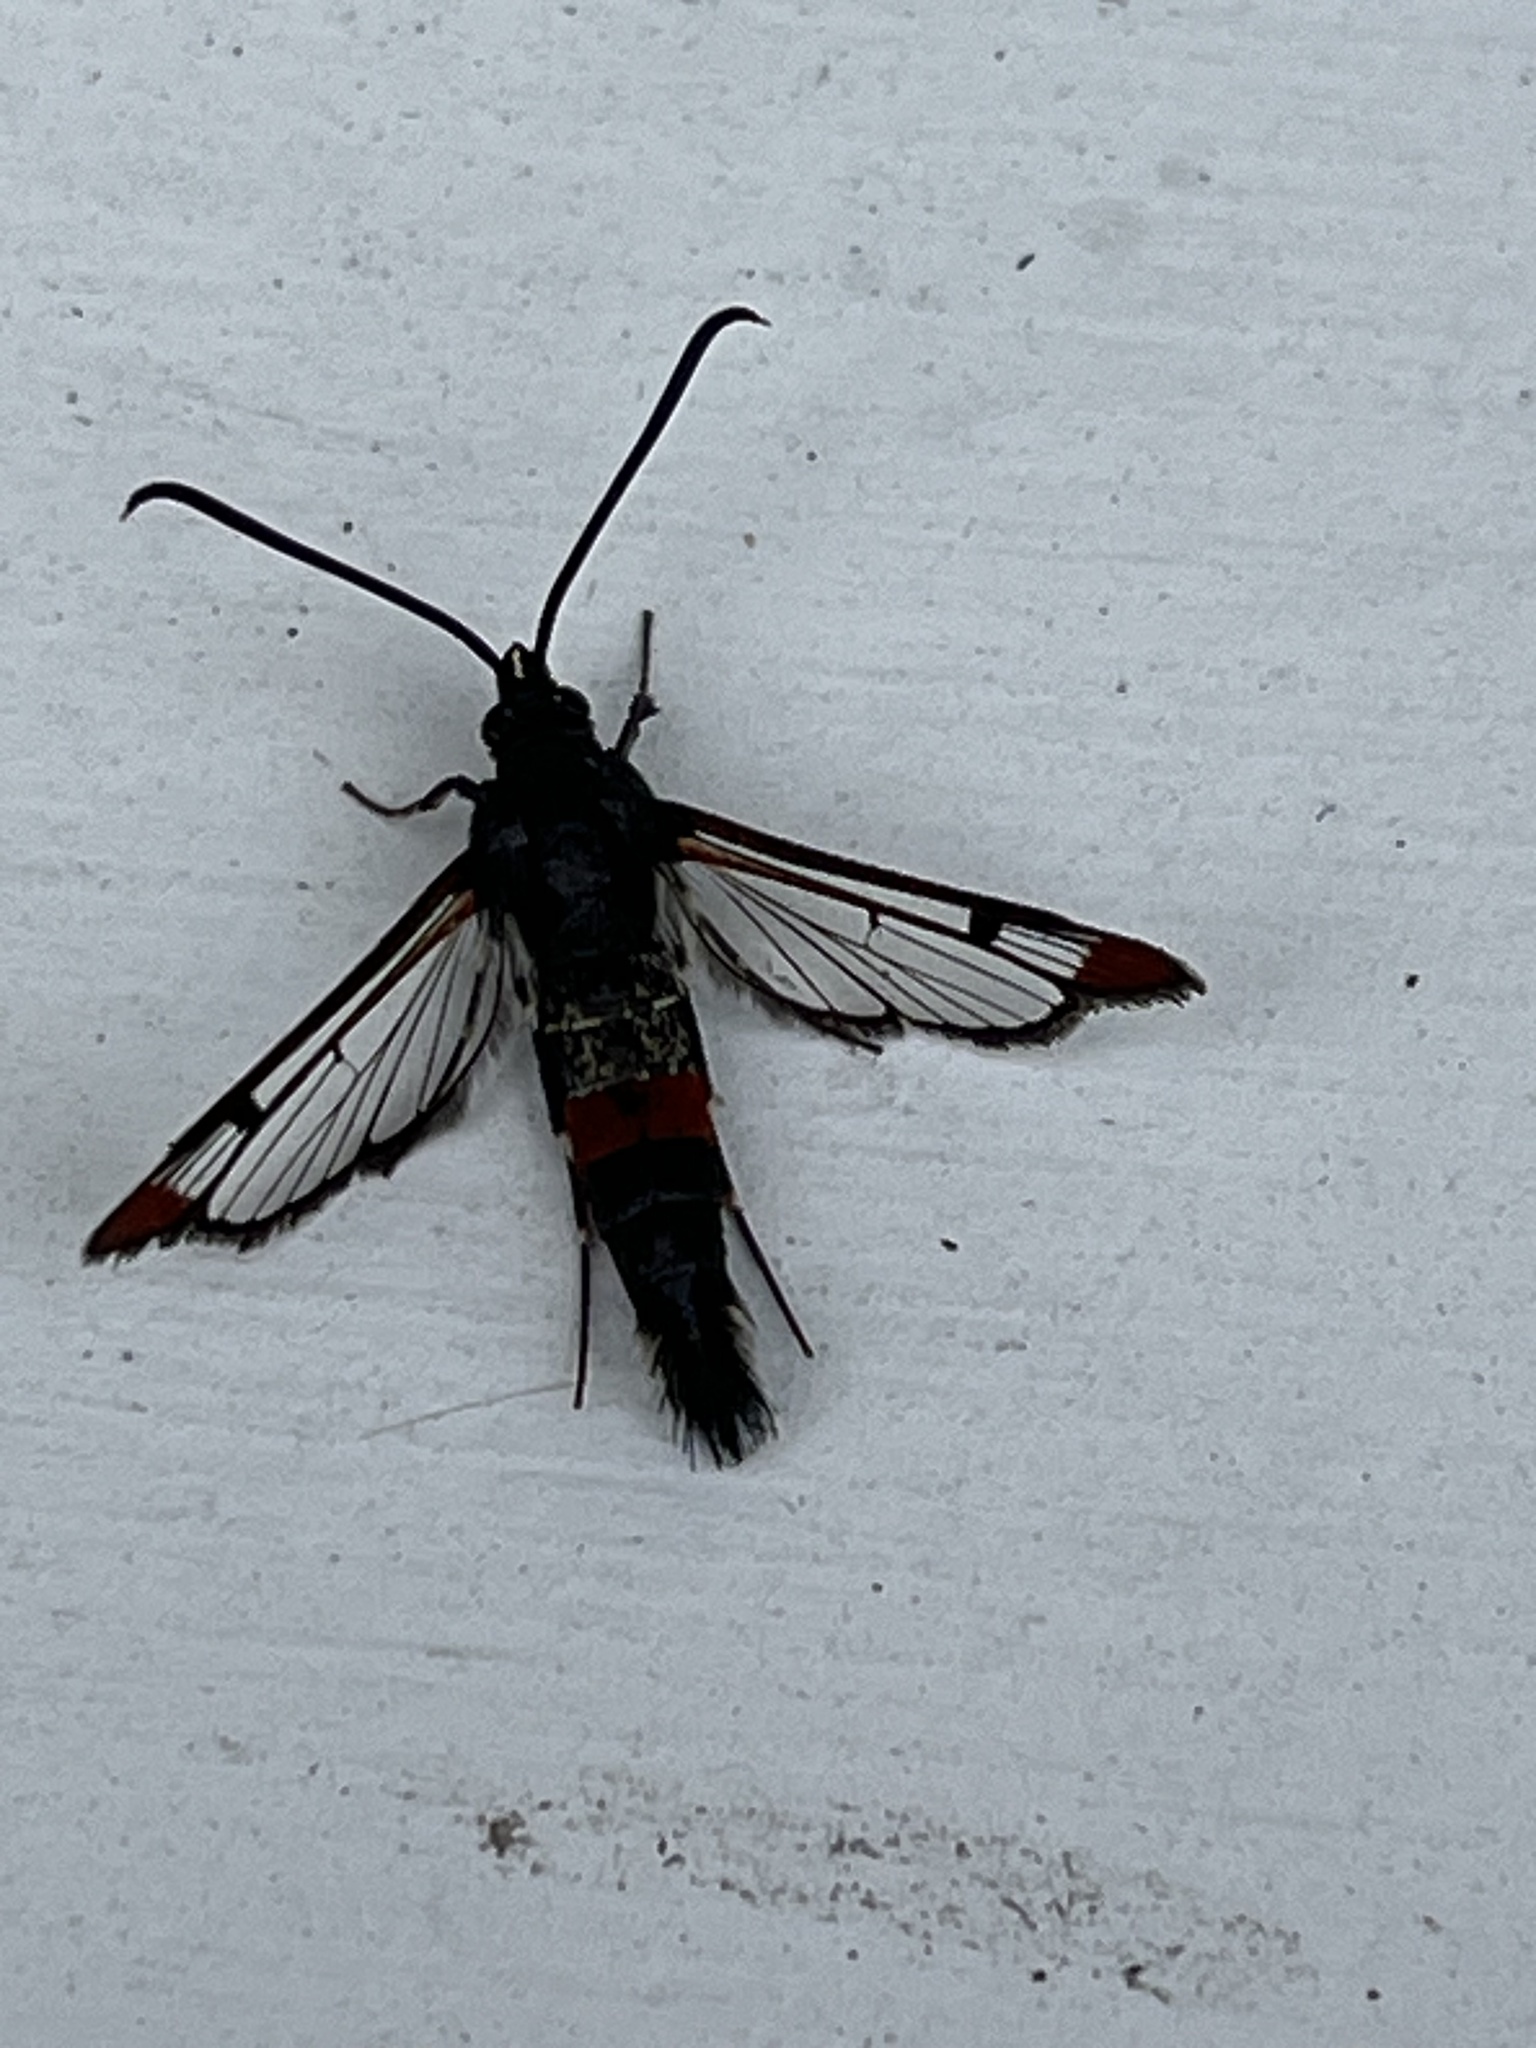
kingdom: Animalia
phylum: Arthropoda
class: Insecta
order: Lepidoptera
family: Sesiidae
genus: Synanthedon
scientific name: Synanthedon formicaeformis
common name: Red-tipped clearwing
